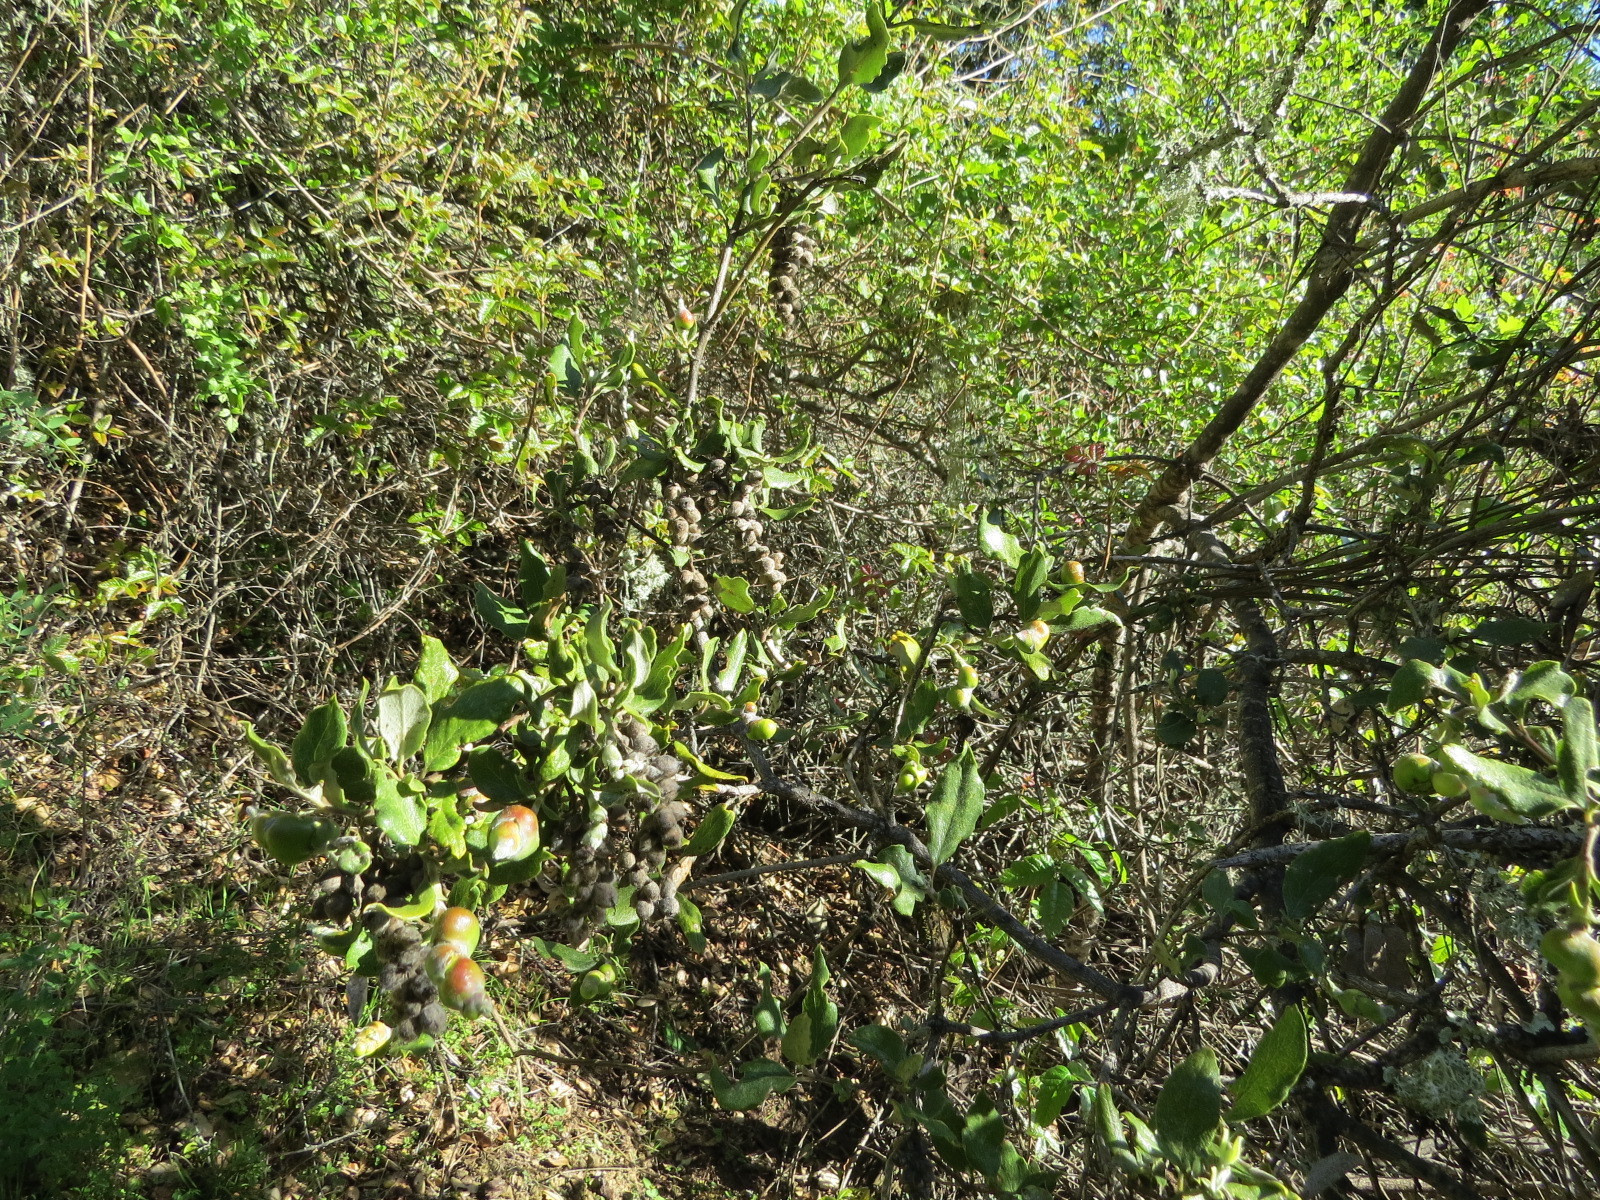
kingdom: Animalia
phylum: Arthropoda
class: Insecta
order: Diptera
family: Cecidomyiidae
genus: Asphondylia
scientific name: Asphondylia garryae
